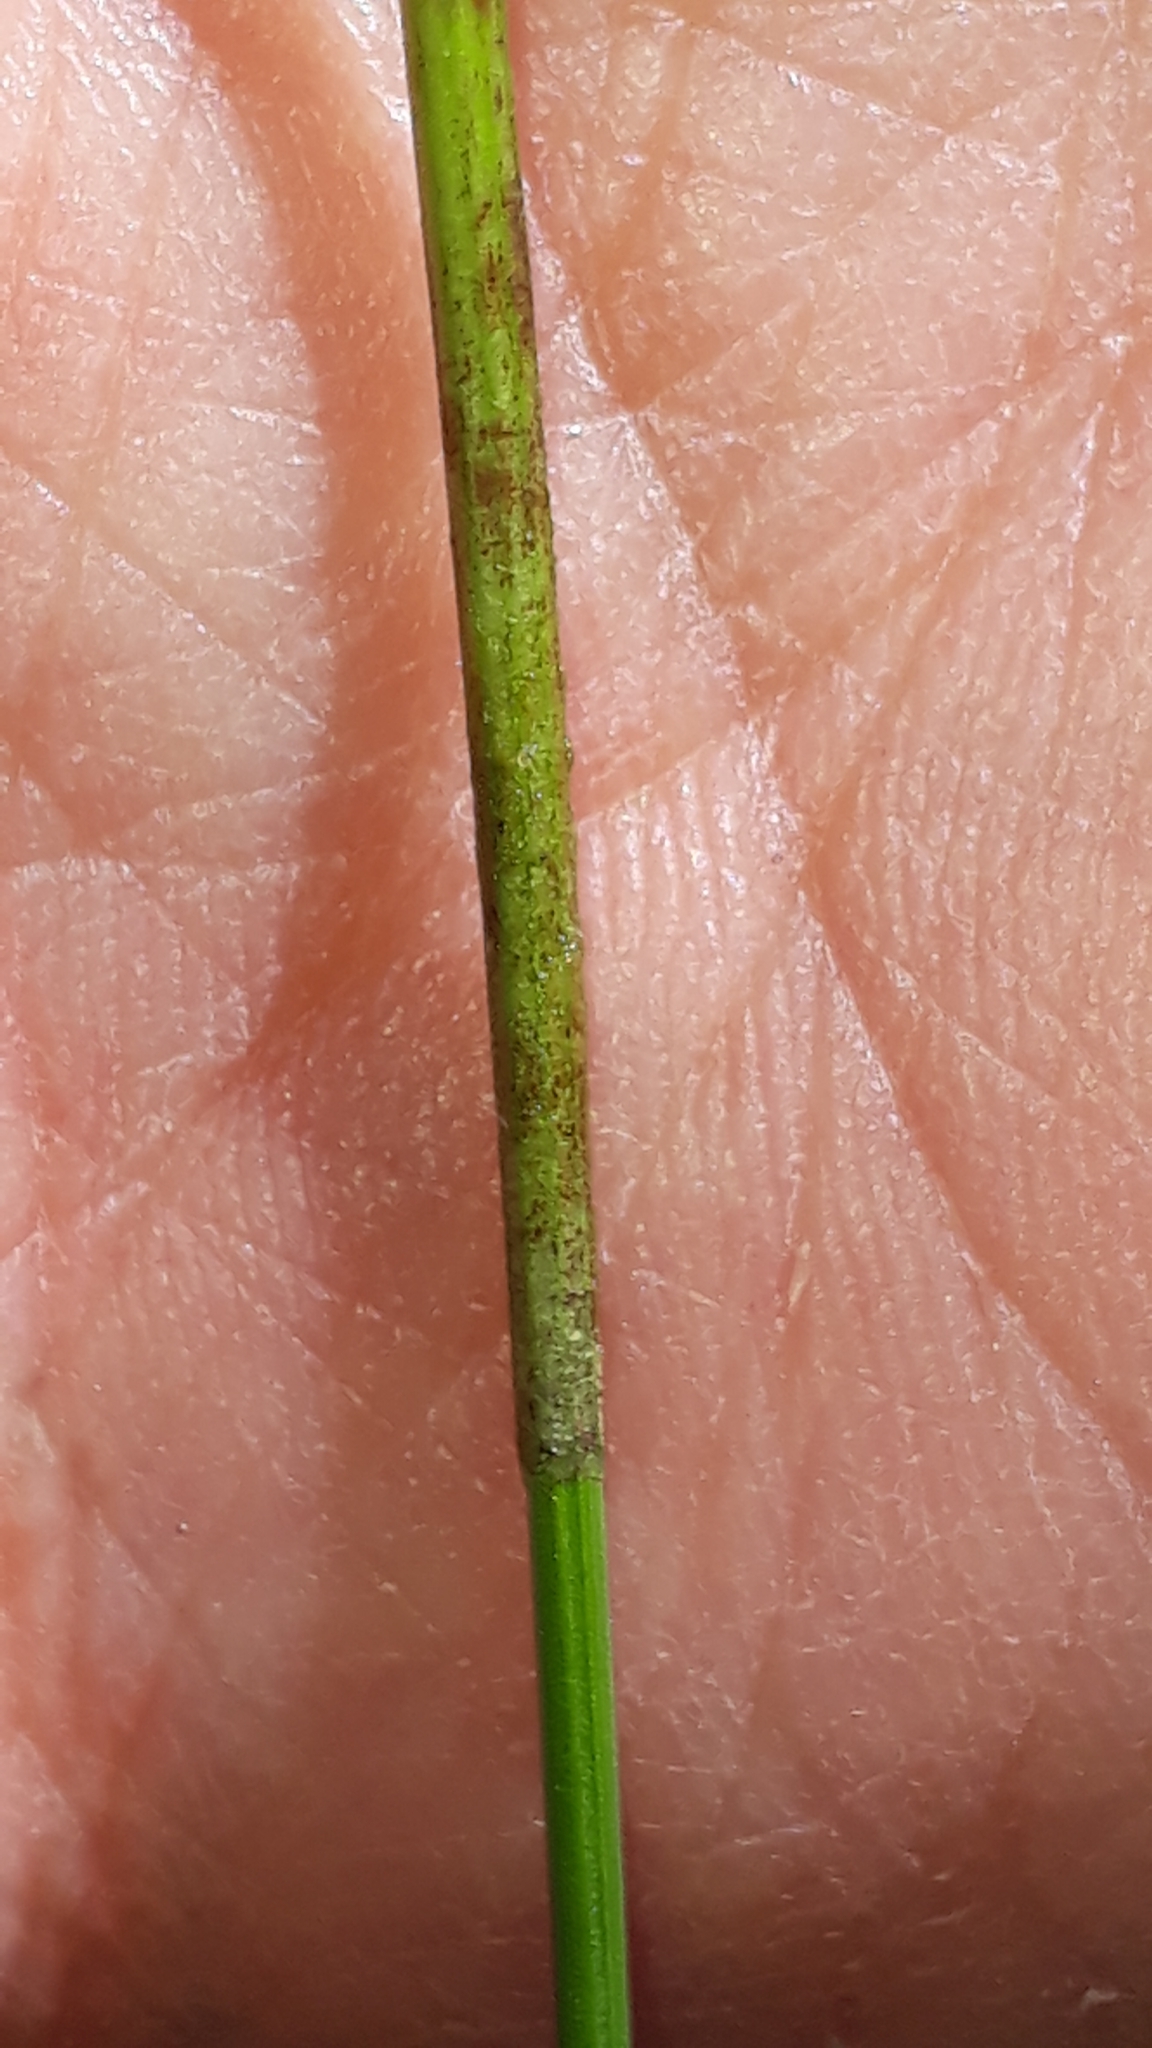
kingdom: Plantae
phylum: Tracheophyta
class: Liliopsida
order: Poales
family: Cyperaceae
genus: Eleocharis
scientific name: Eleocharis palustris
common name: Common spike-rush
